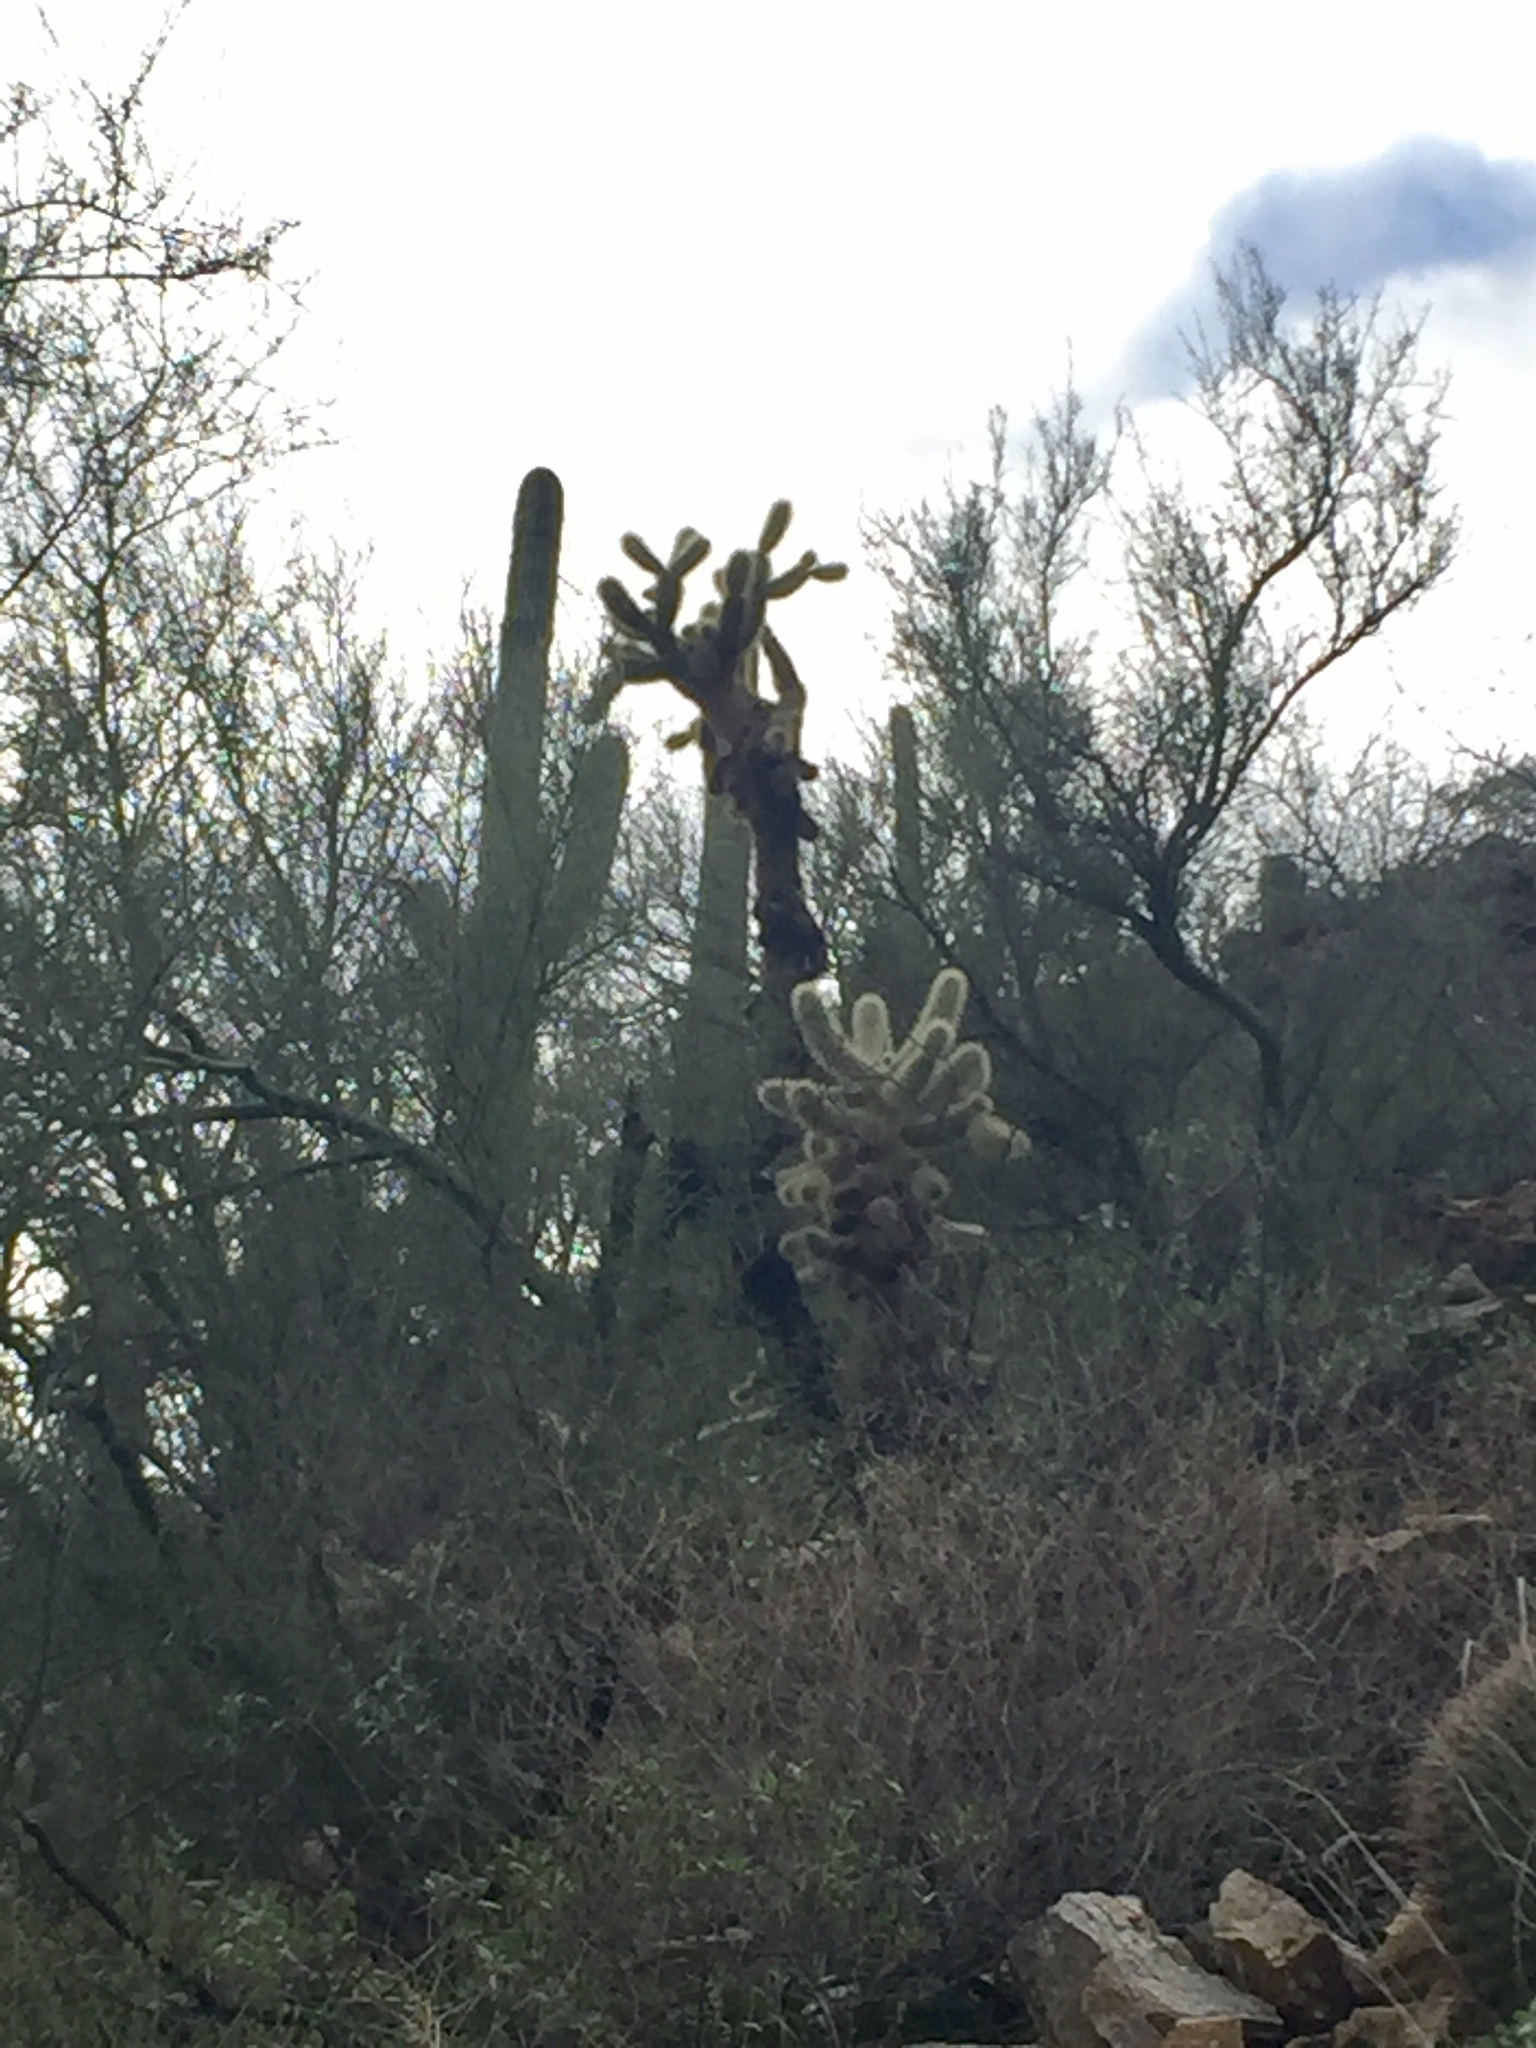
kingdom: Plantae
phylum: Tracheophyta
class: Magnoliopsida
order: Caryophyllales
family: Cactaceae
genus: Cylindropuntia
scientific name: Cylindropuntia fosbergii
